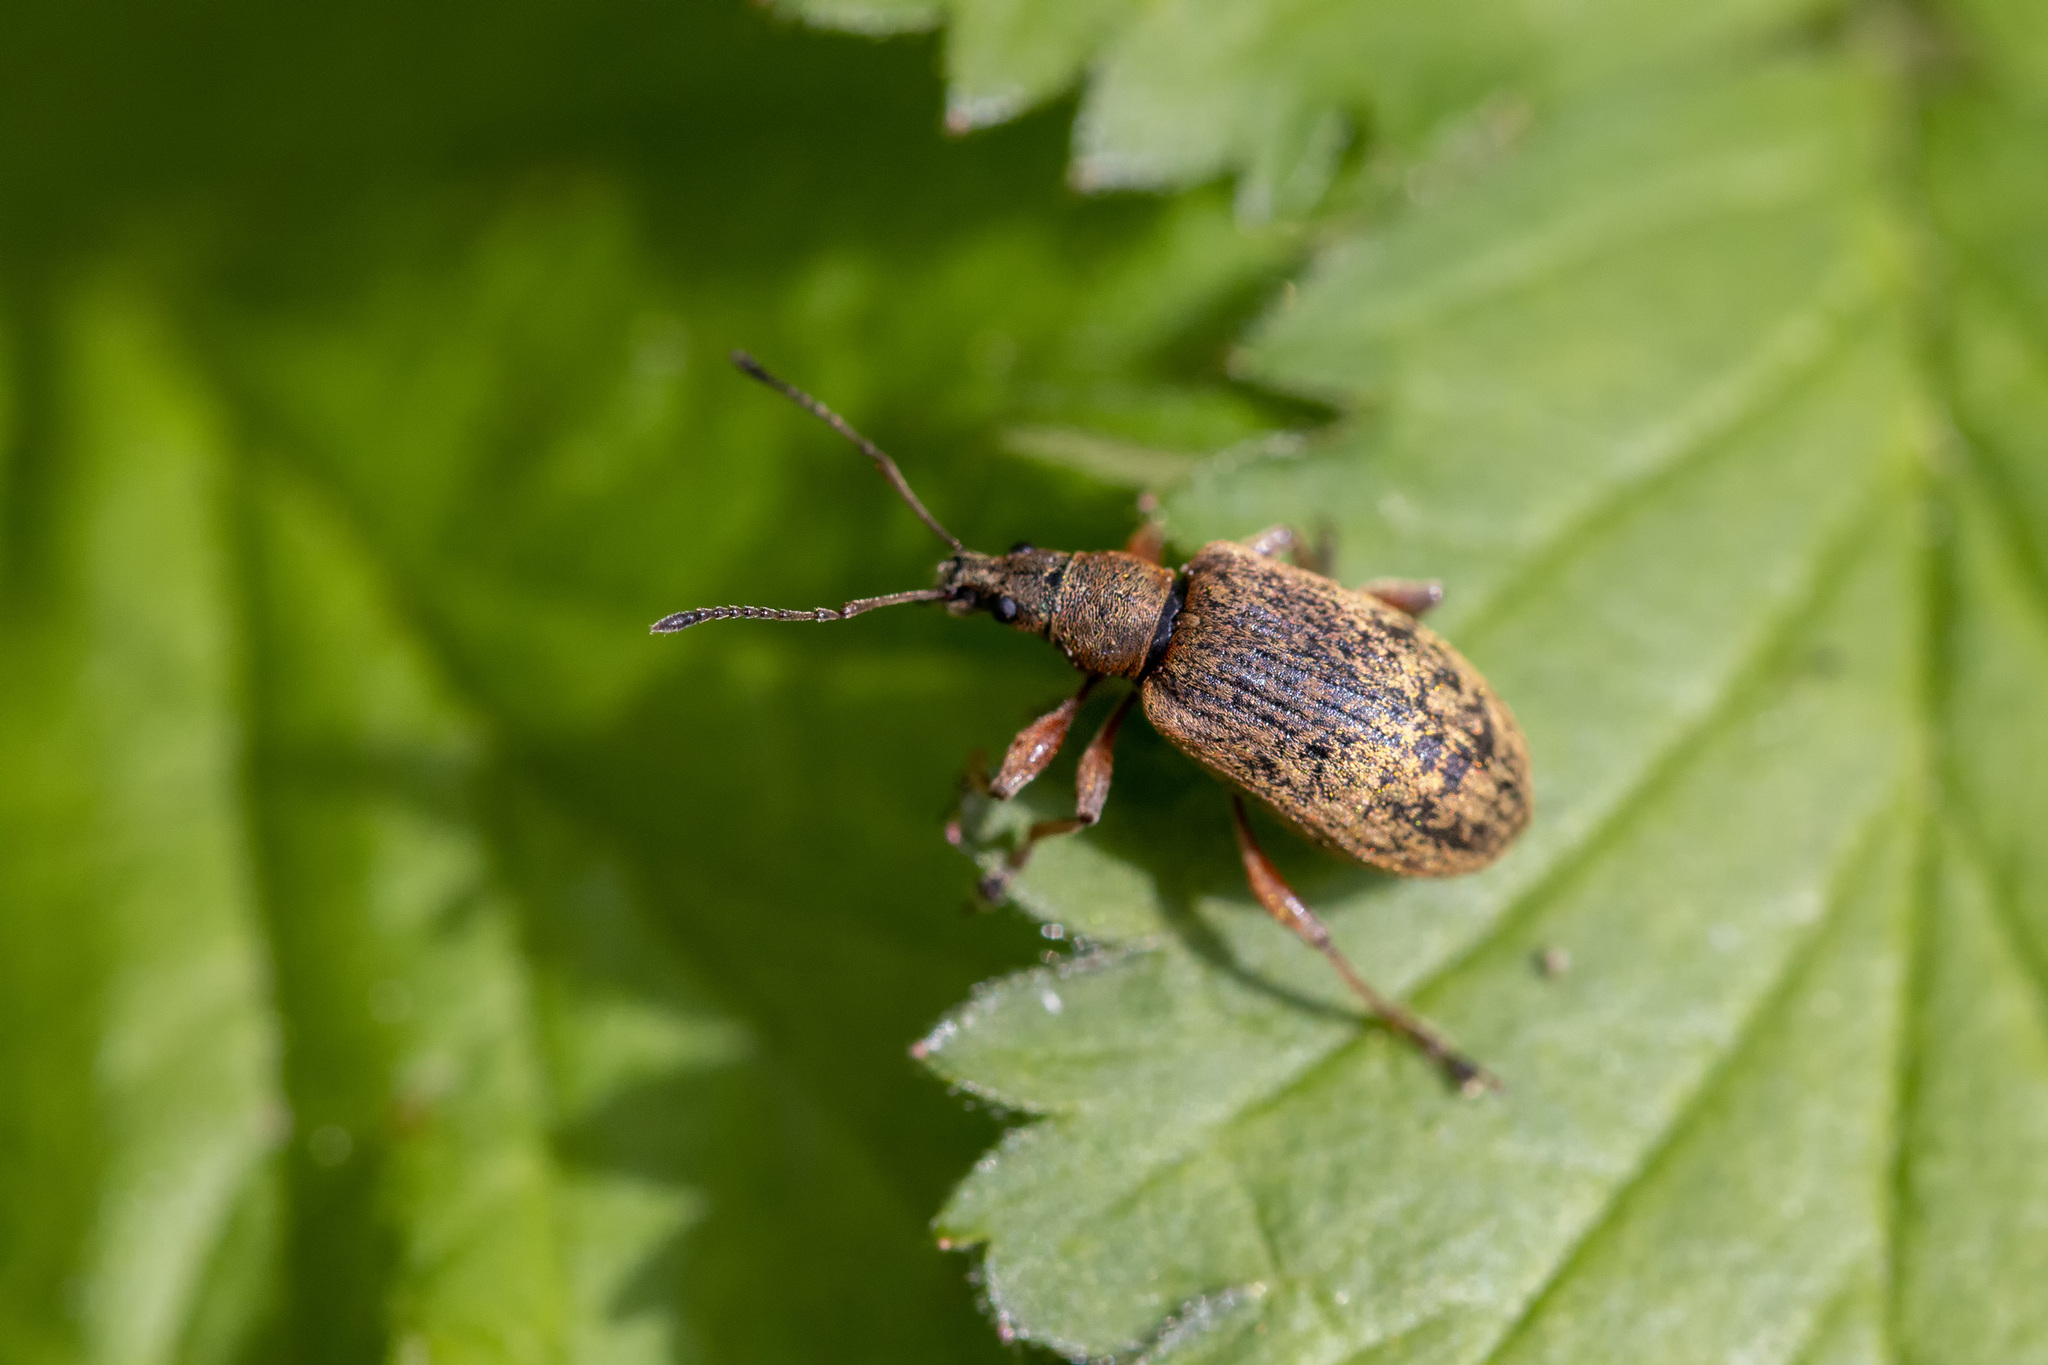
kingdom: Animalia
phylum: Arthropoda
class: Insecta
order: Coleoptera
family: Curculionidae
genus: Phyllobius
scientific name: Phyllobius glaucus
